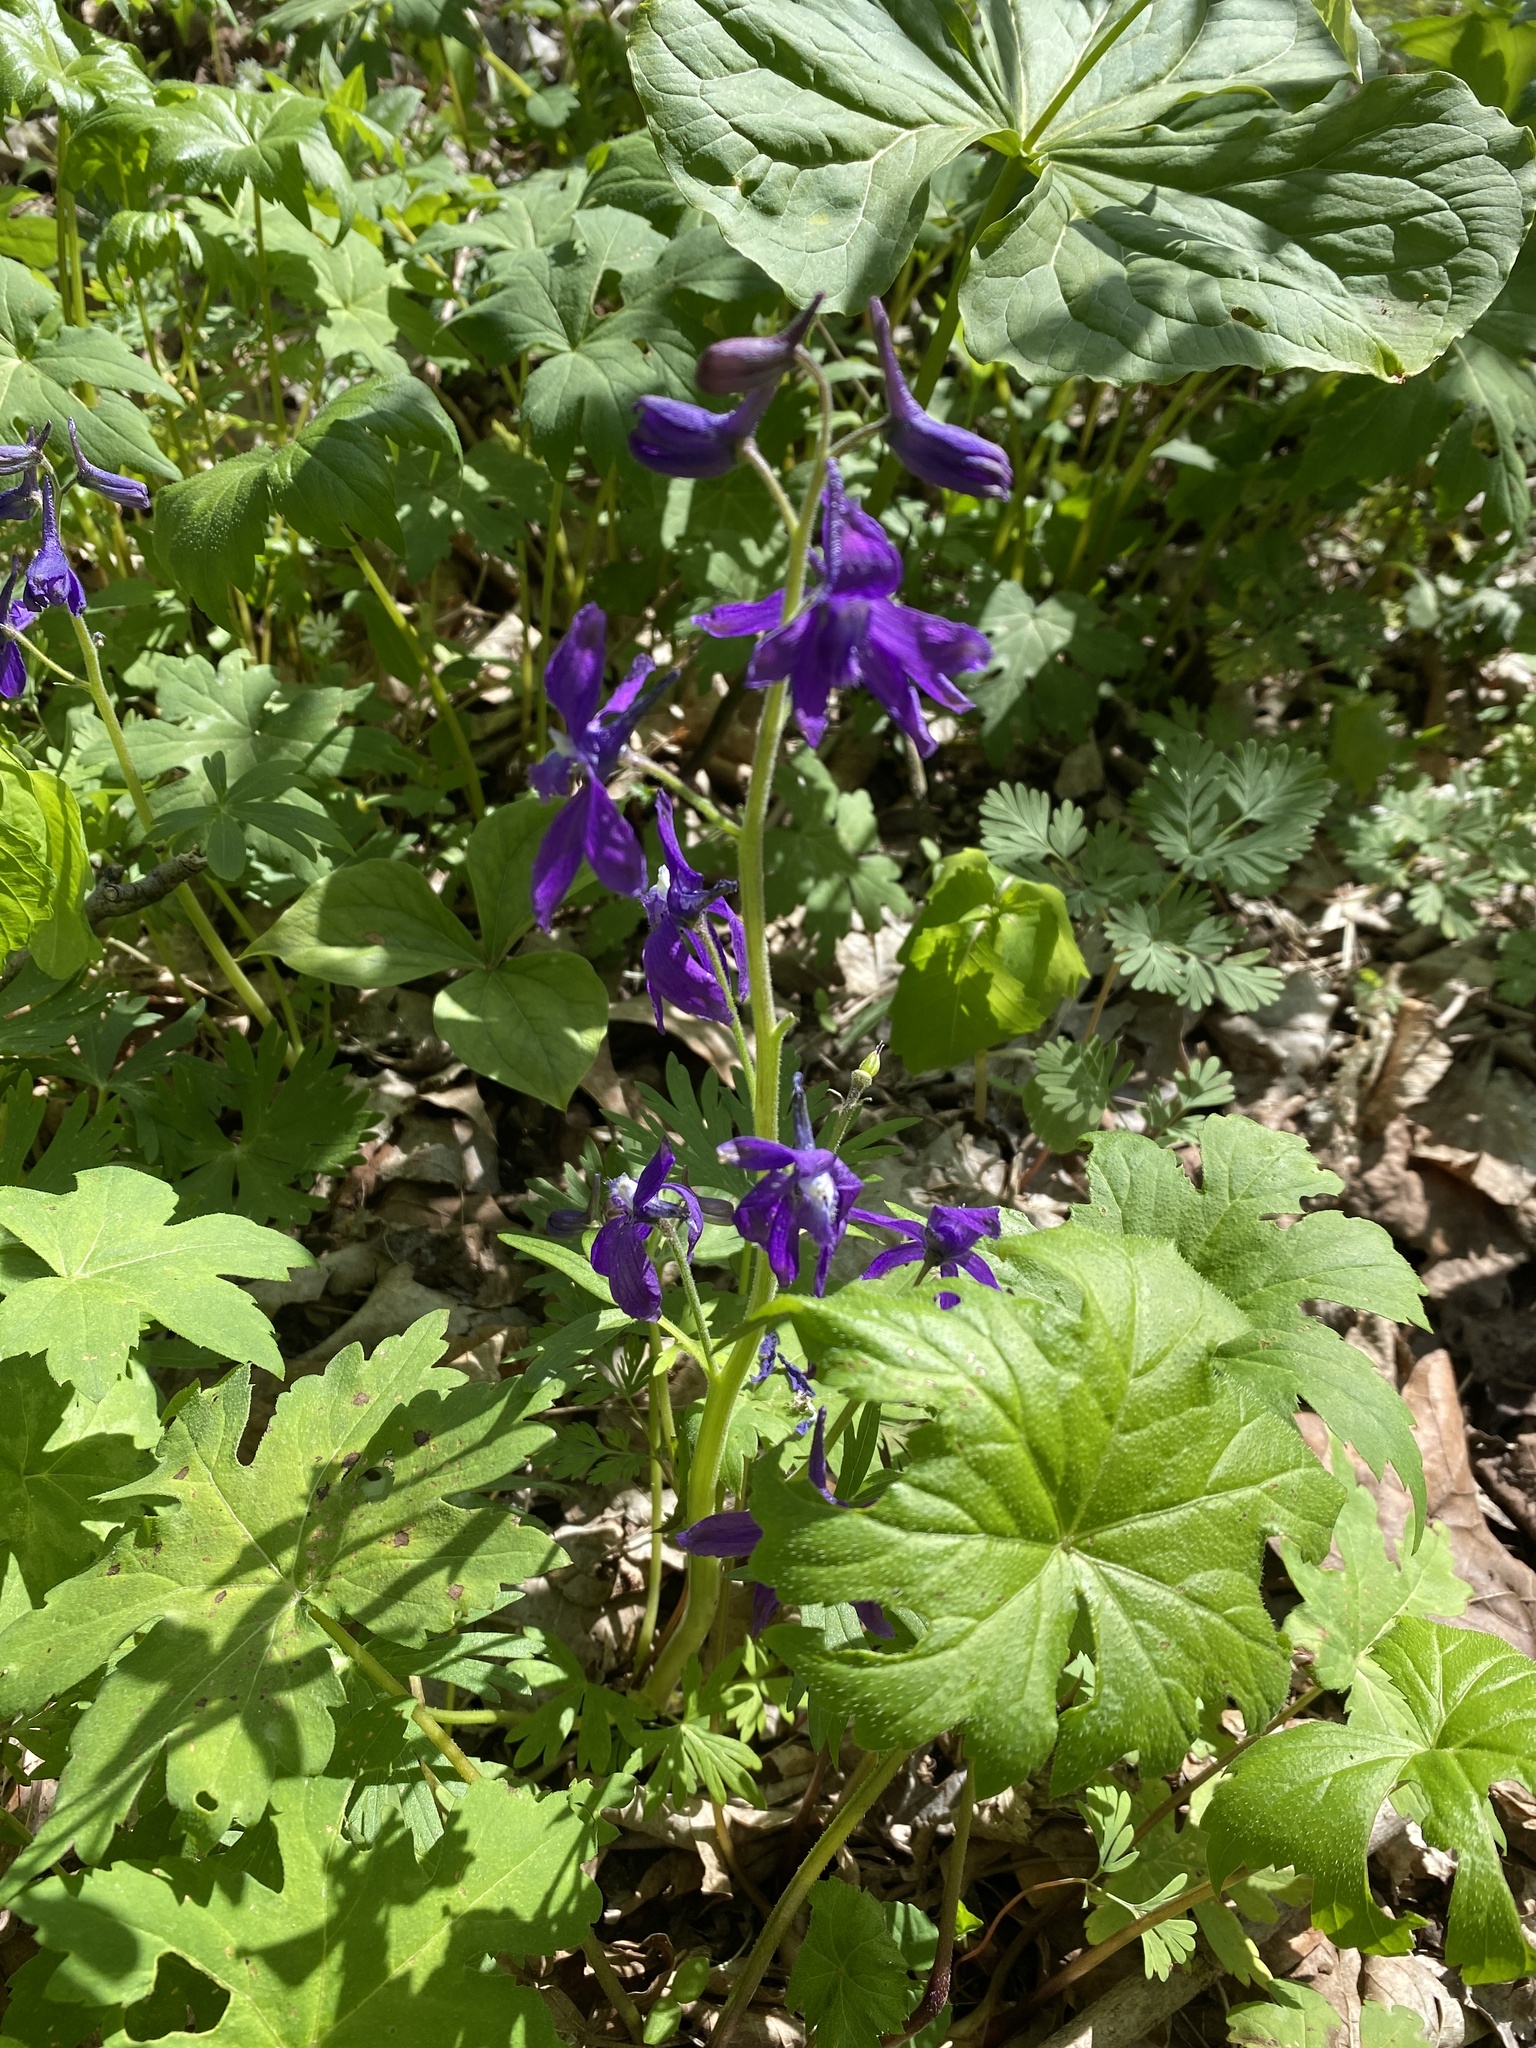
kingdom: Plantae
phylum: Tracheophyta
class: Magnoliopsida
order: Ranunculales
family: Ranunculaceae
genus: Delphinium
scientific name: Delphinium tricorne
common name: Dwarf larkspur
